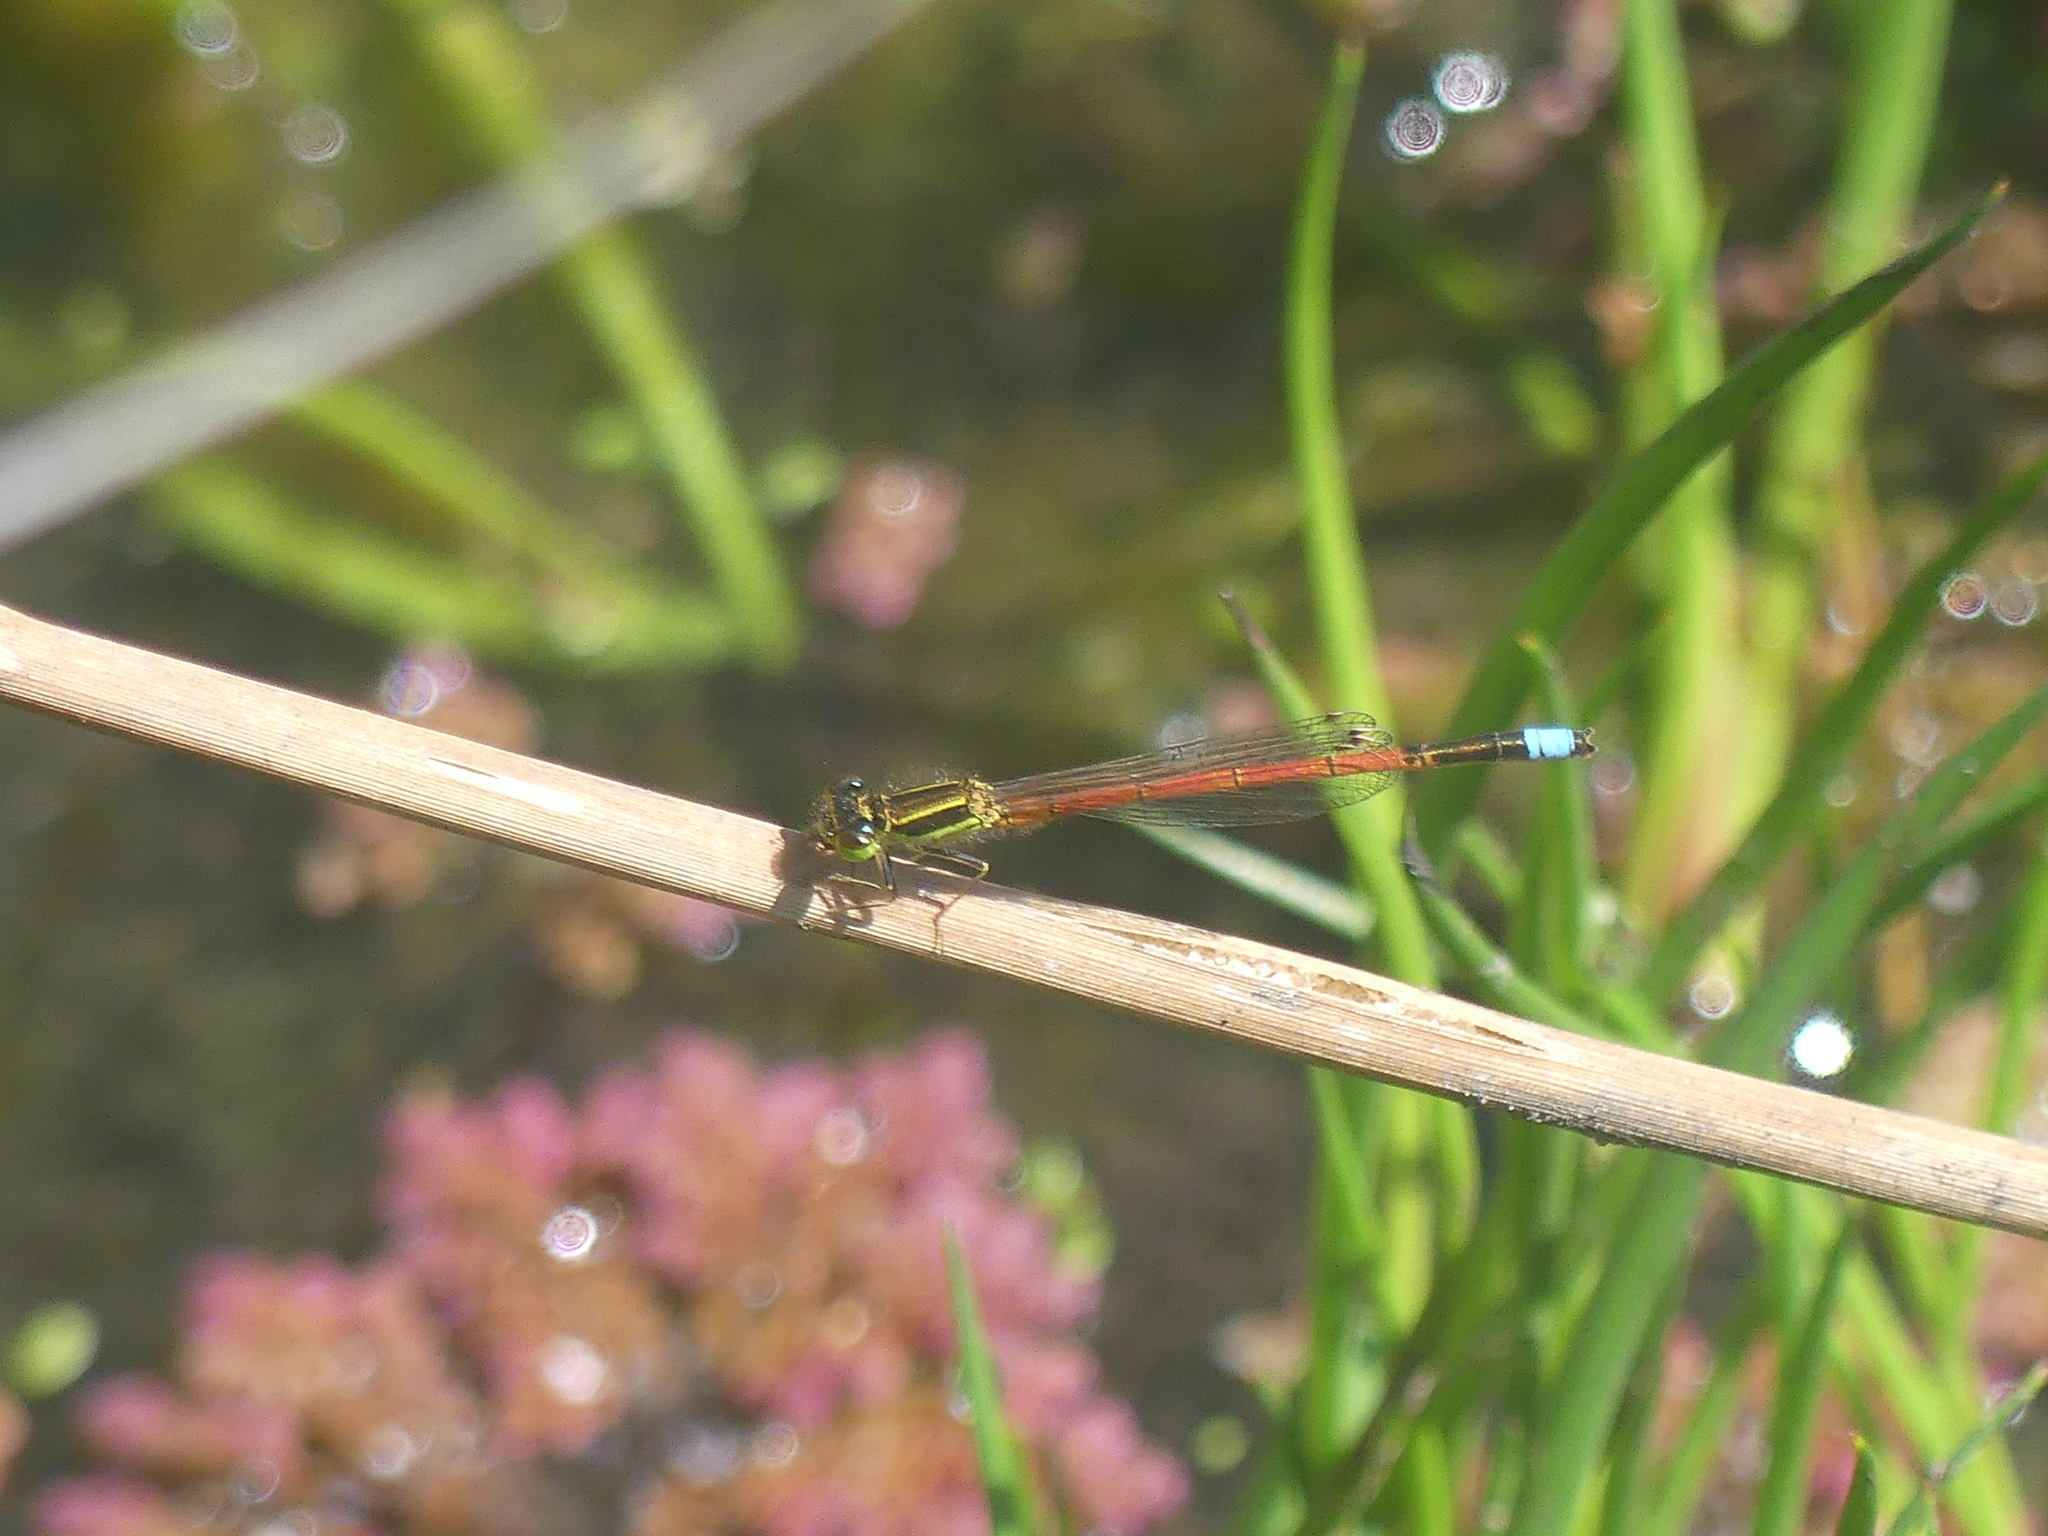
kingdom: Animalia
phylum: Arthropoda
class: Insecta
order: Odonata
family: Coenagrionidae
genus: Ischnura
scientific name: Ischnura aurora
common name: Gossamer damselfly
